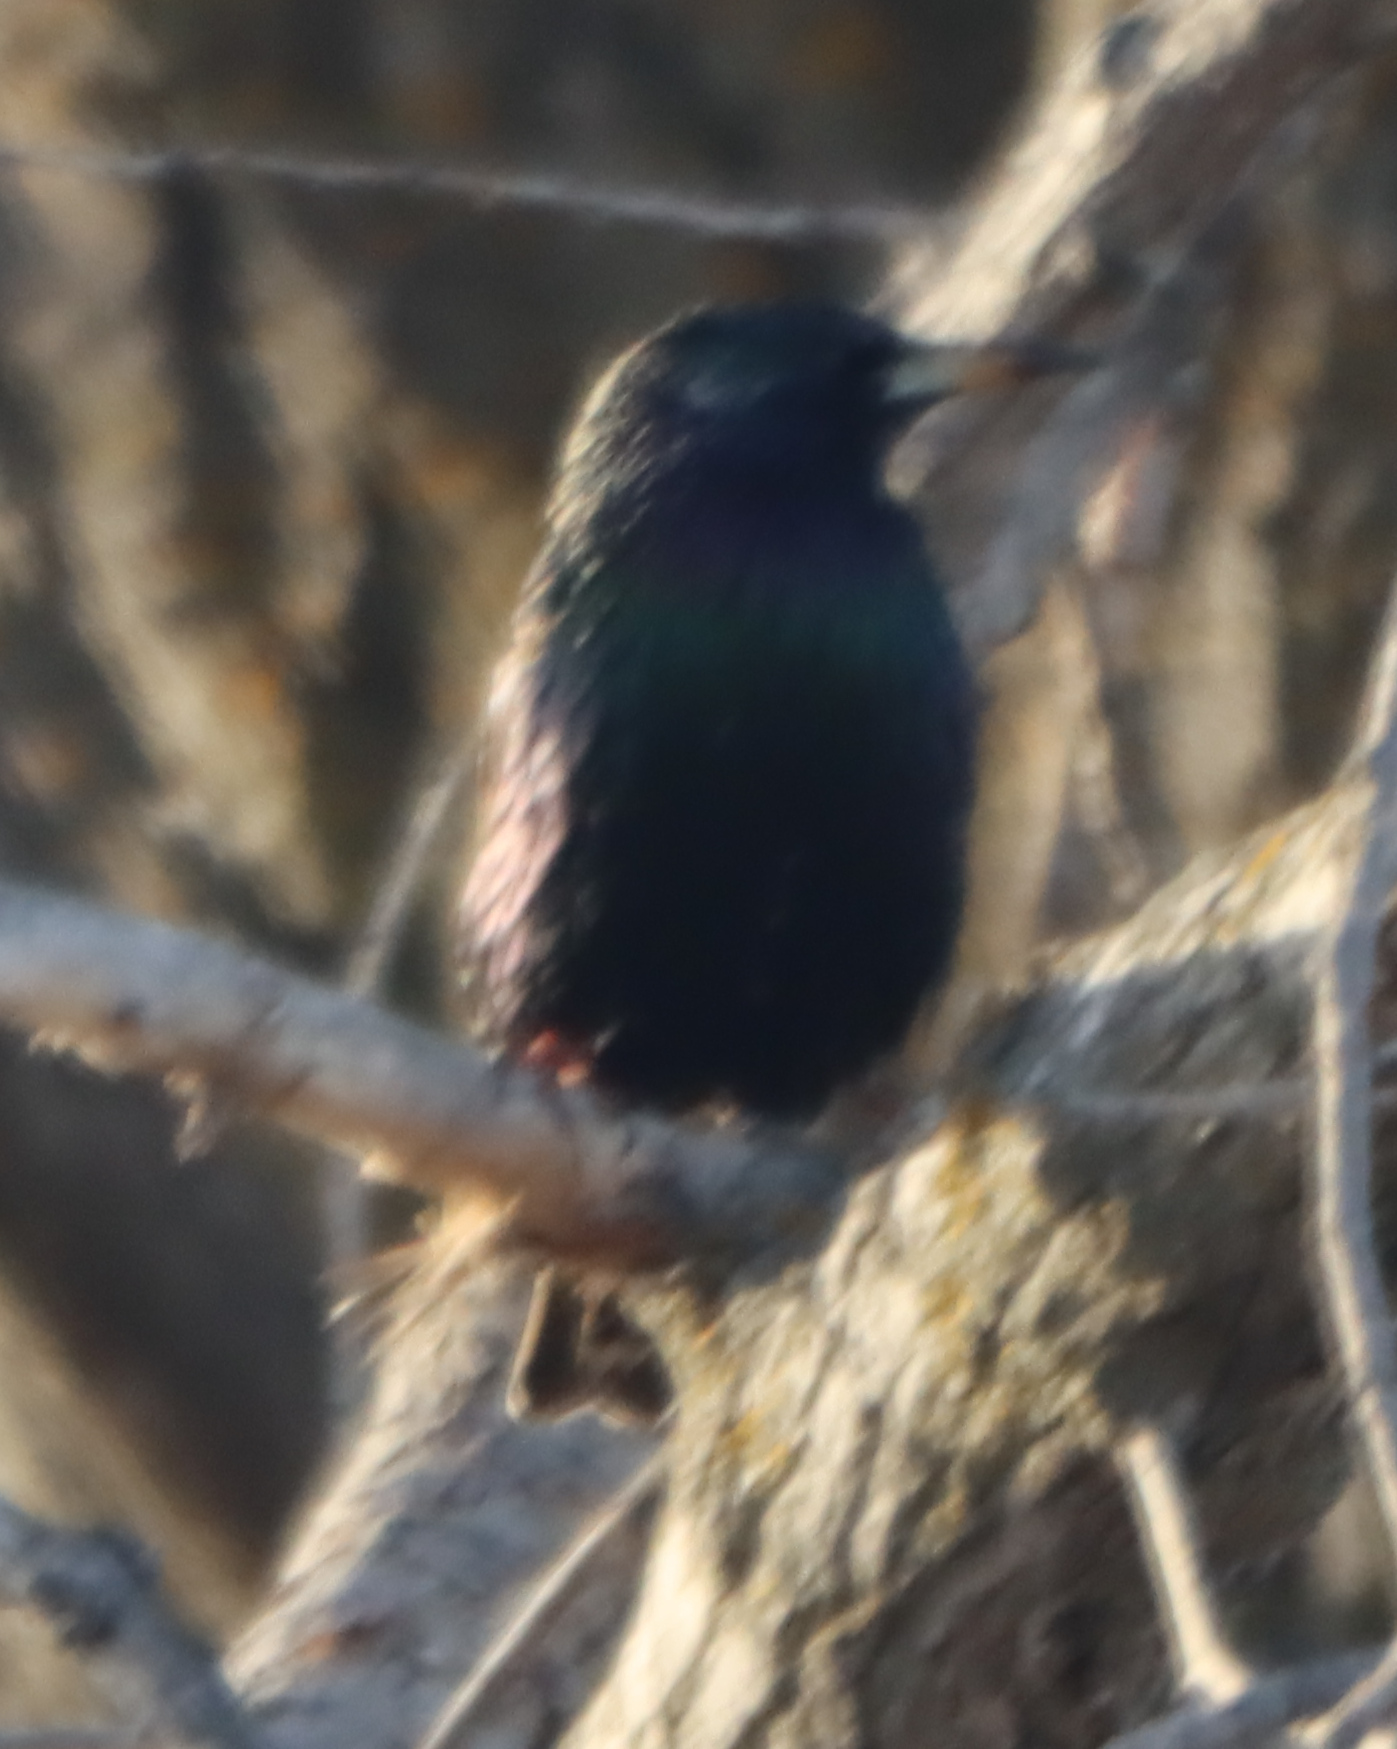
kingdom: Animalia
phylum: Chordata
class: Aves
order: Passeriformes
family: Sturnidae
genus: Sturnus
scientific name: Sturnus vulgaris
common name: Common starling
